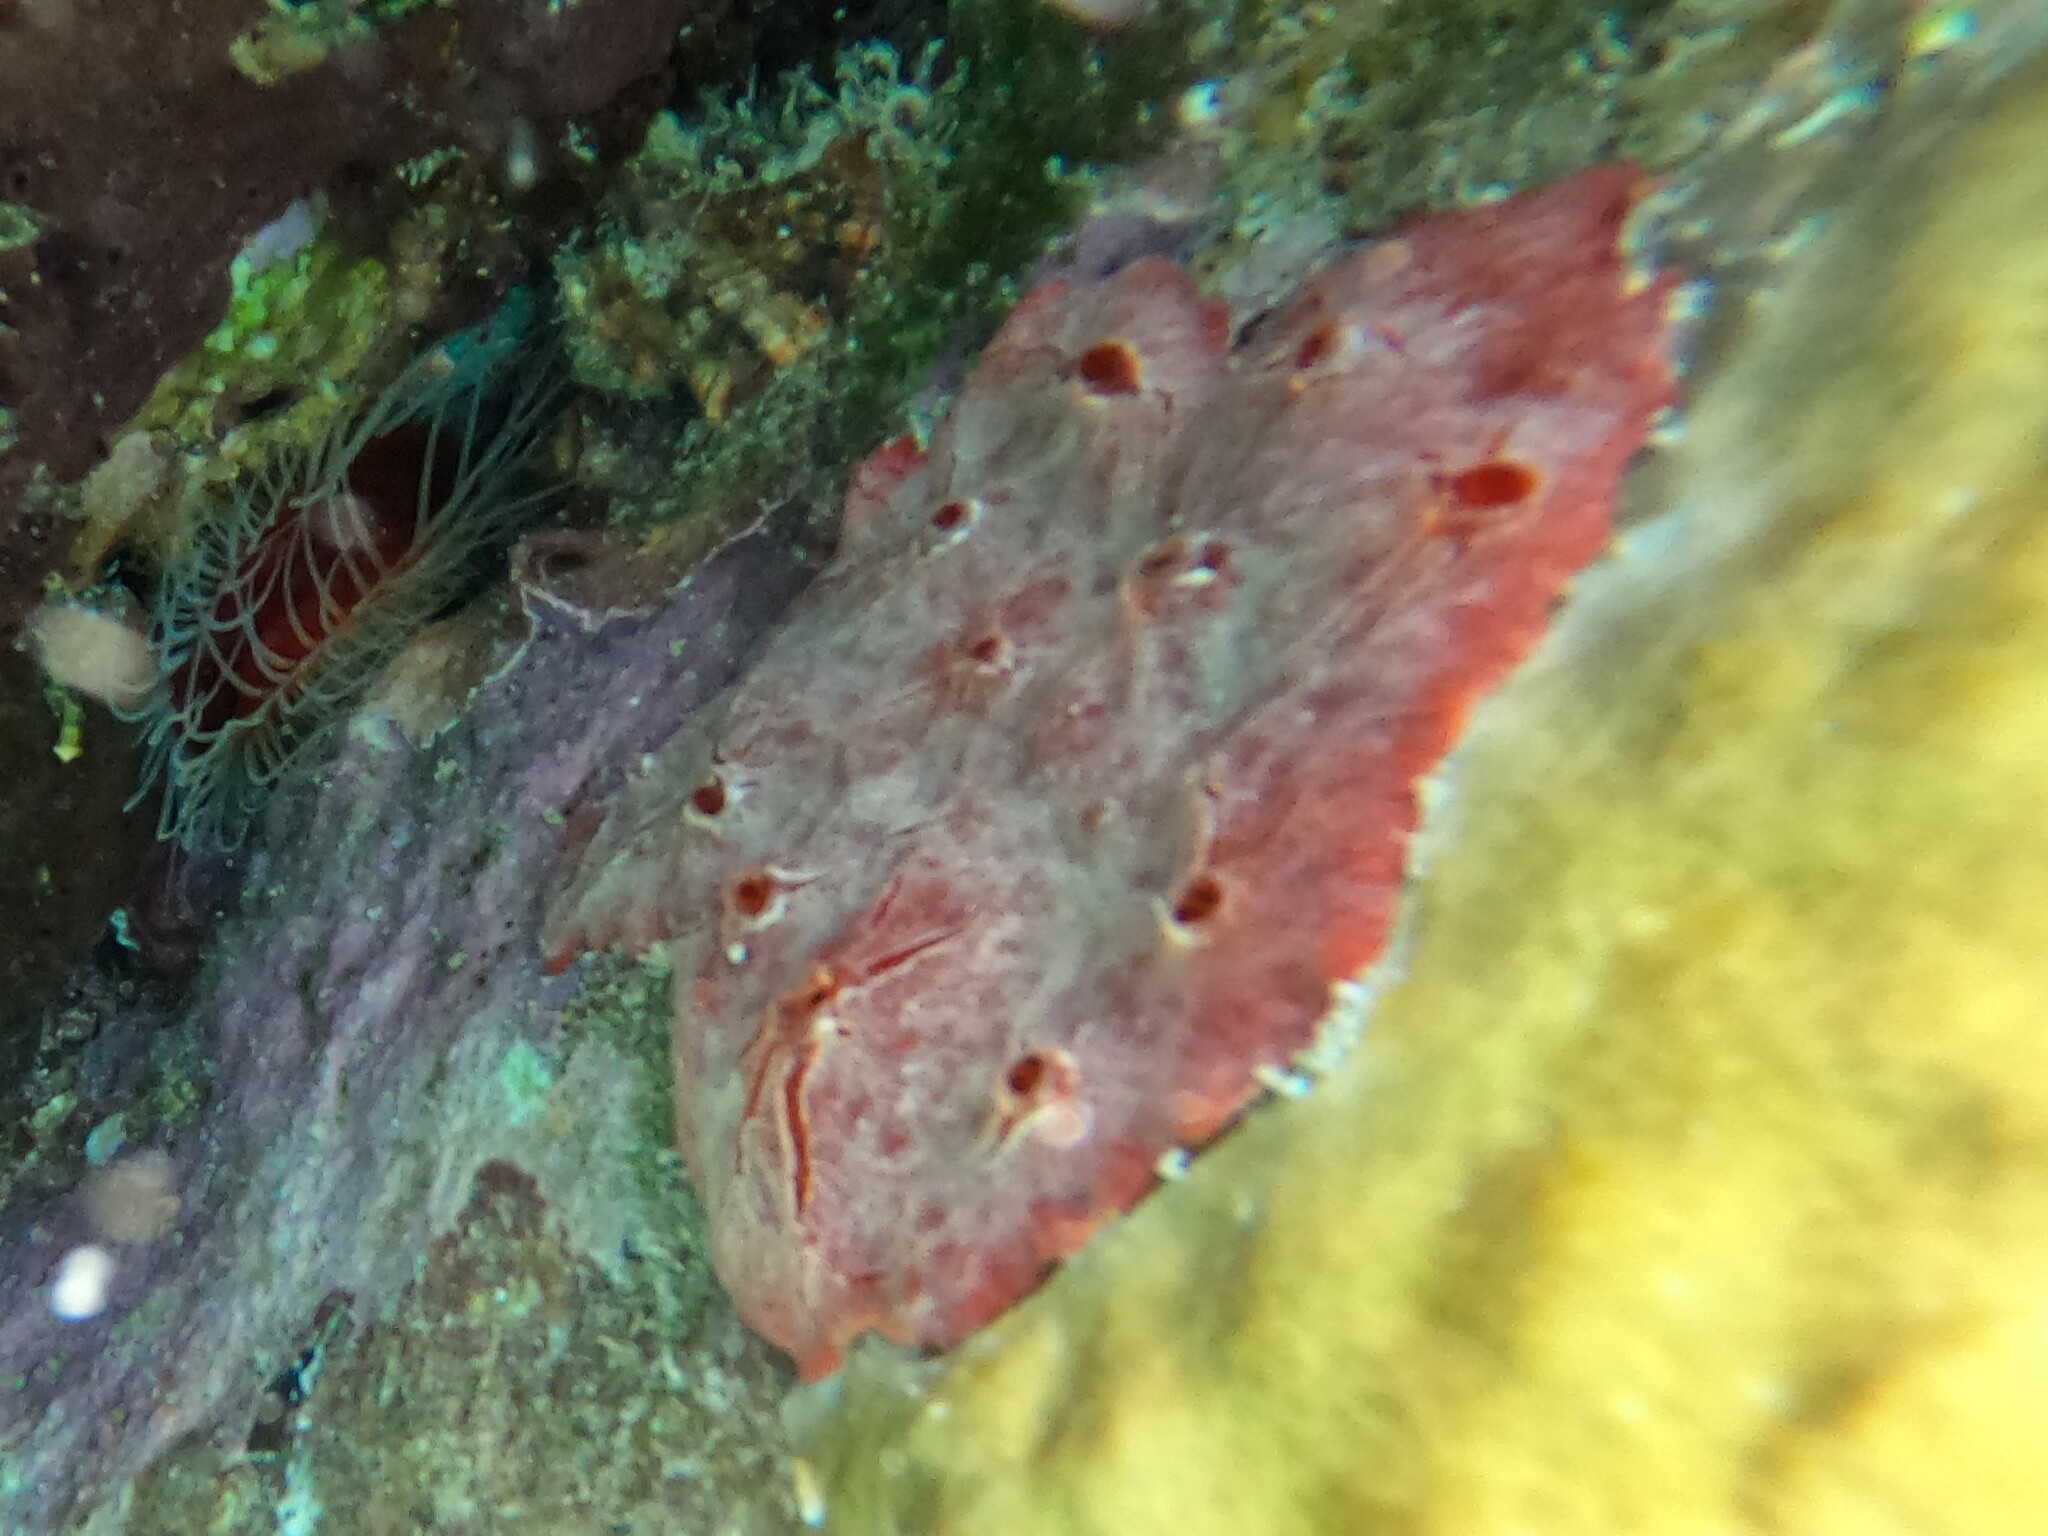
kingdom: Animalia
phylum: Porifera
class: Demospongiae
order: Poecilosclerida
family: Crambeidae
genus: Monanchora
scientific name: Monanchora arbuscula
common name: Red-white marbled sponge
